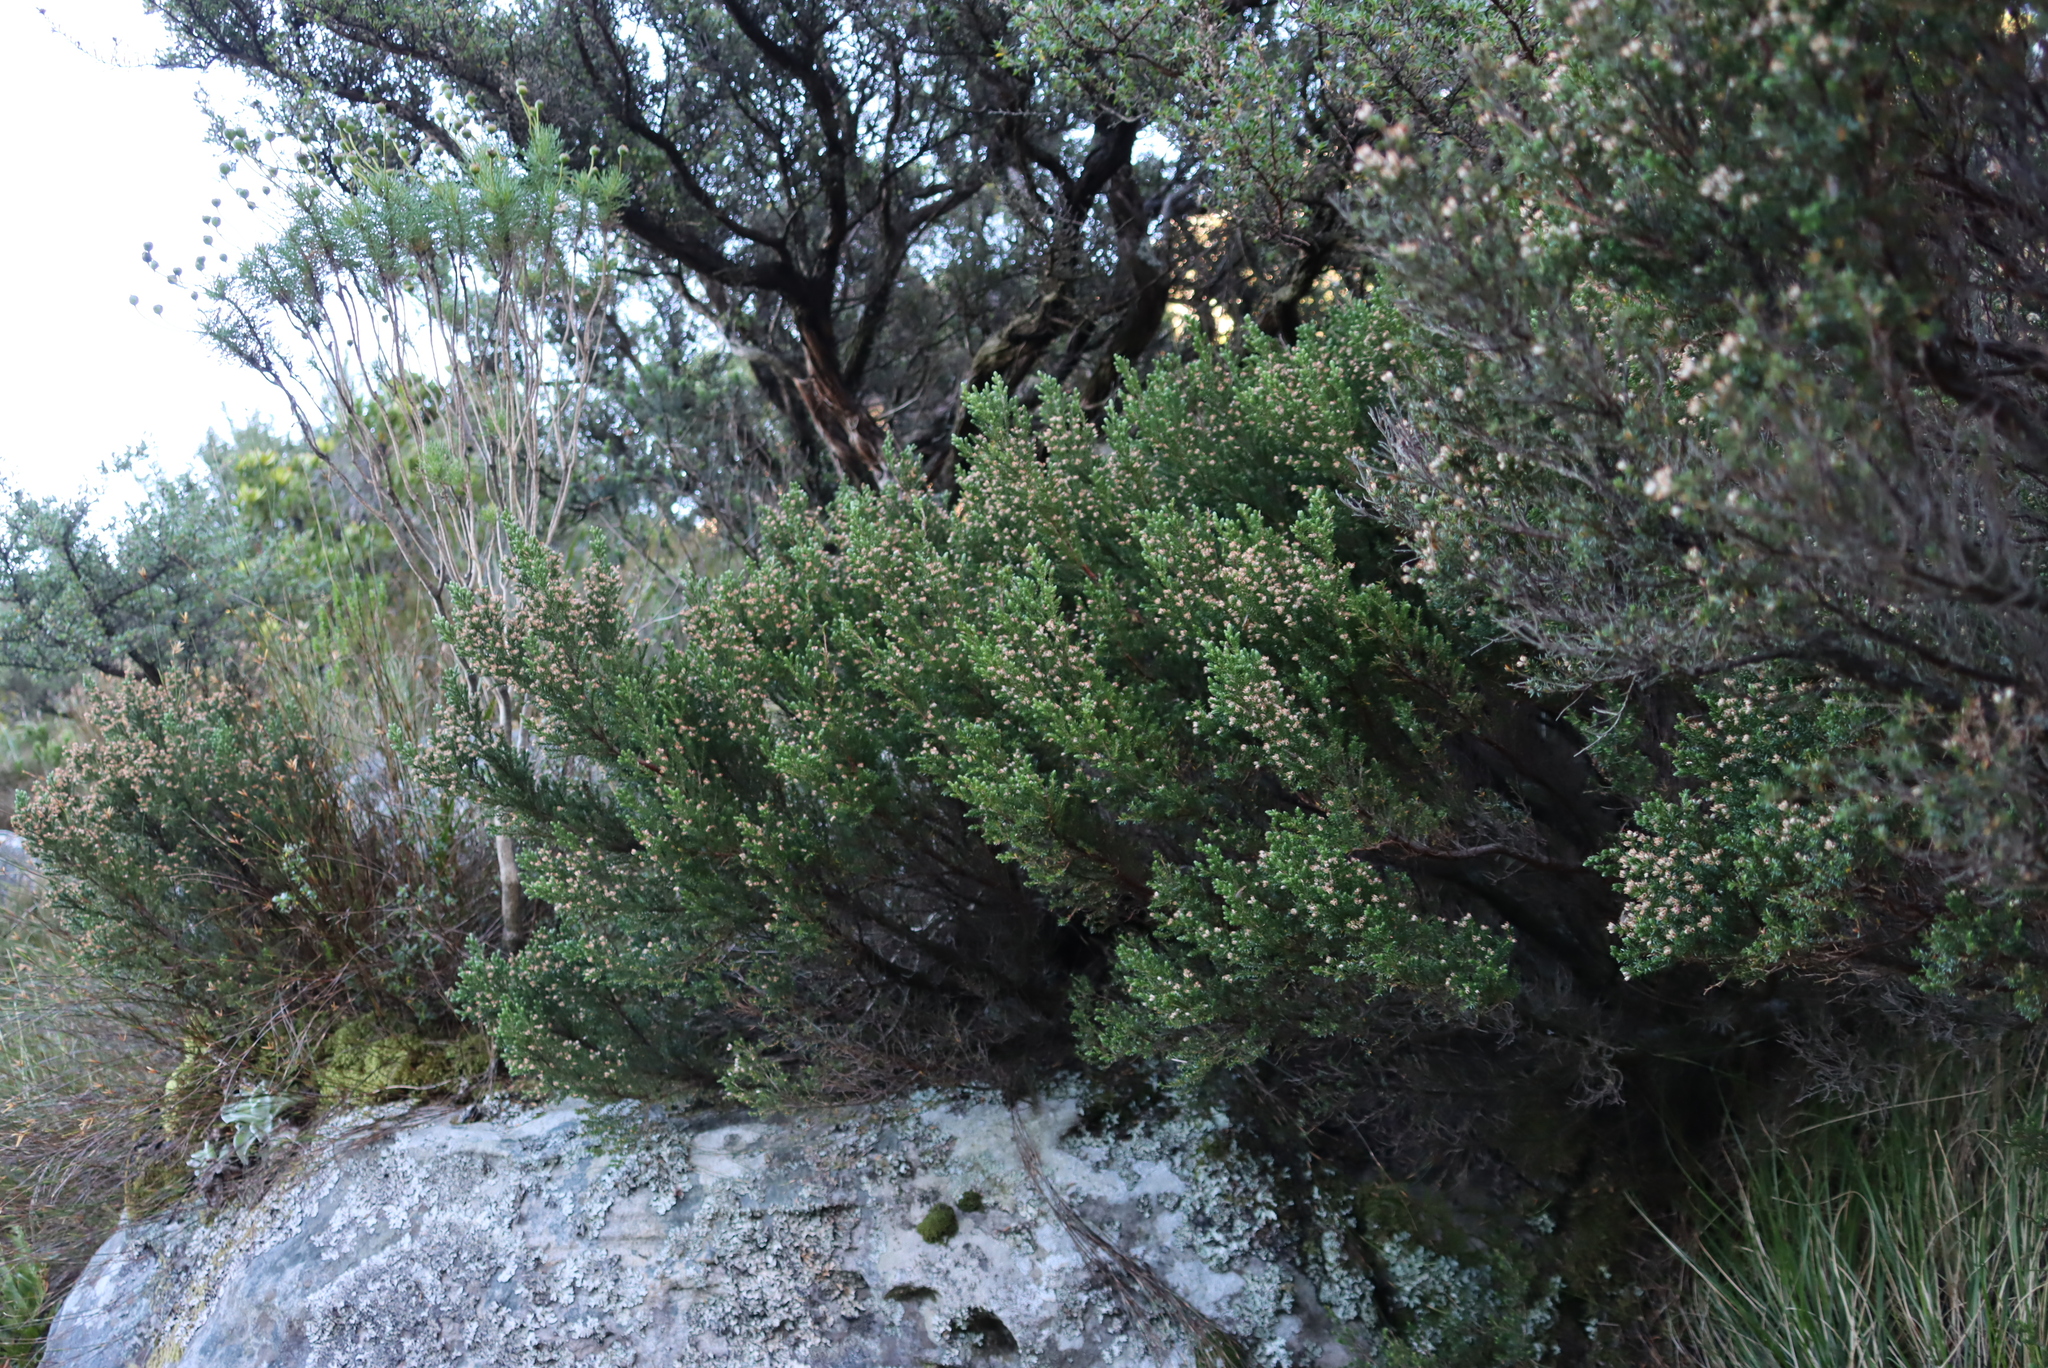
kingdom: Plantae
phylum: Tracheophyta
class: Magnoliopsida
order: Ericales
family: Ericaceae
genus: Erica
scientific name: Erica diosmifolia
